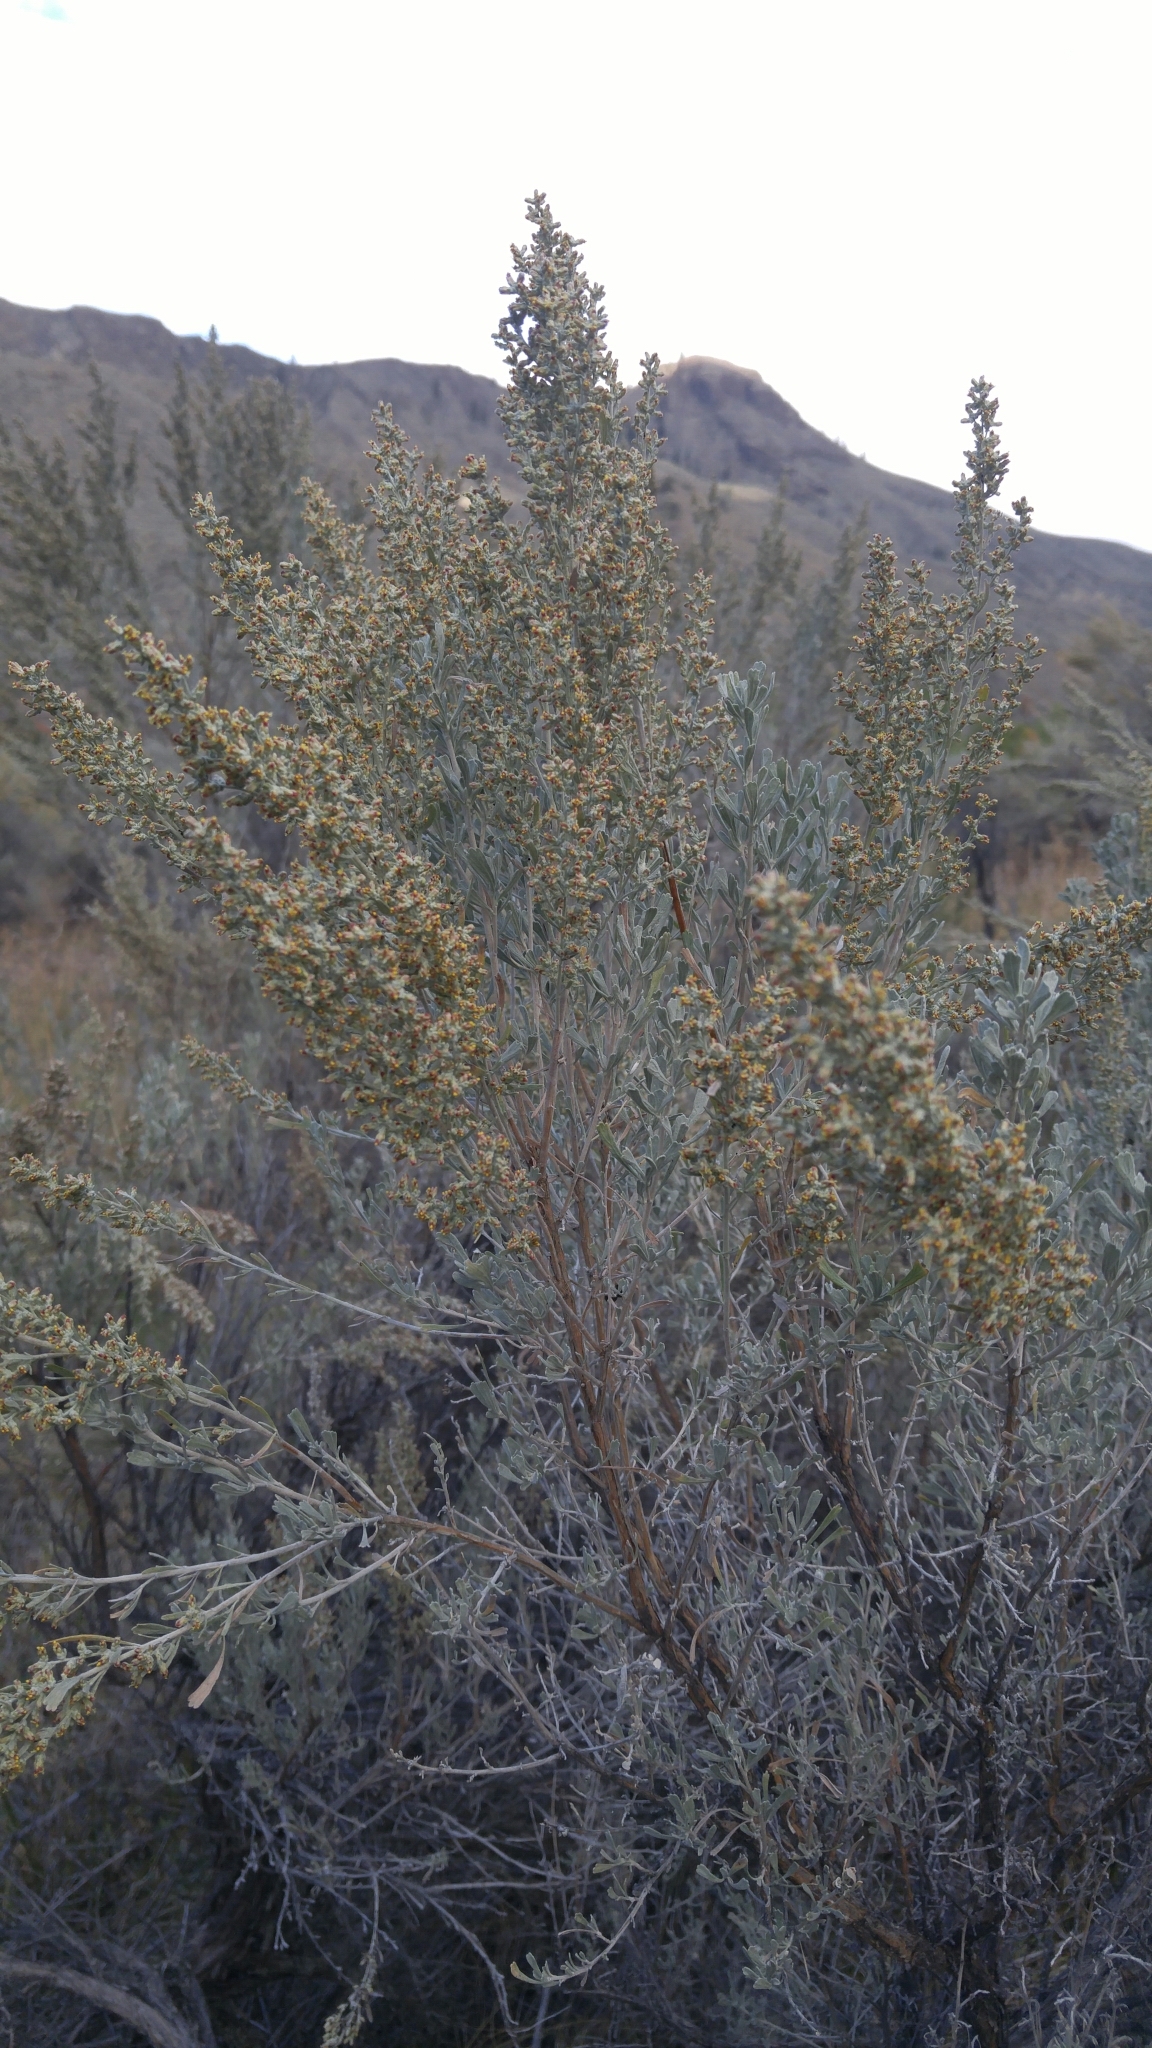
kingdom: Plantae
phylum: Tracheophyta
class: Magnoliopsida
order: Asterales
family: Asteraceae
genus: Artemisia
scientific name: Artemisia tridentata
